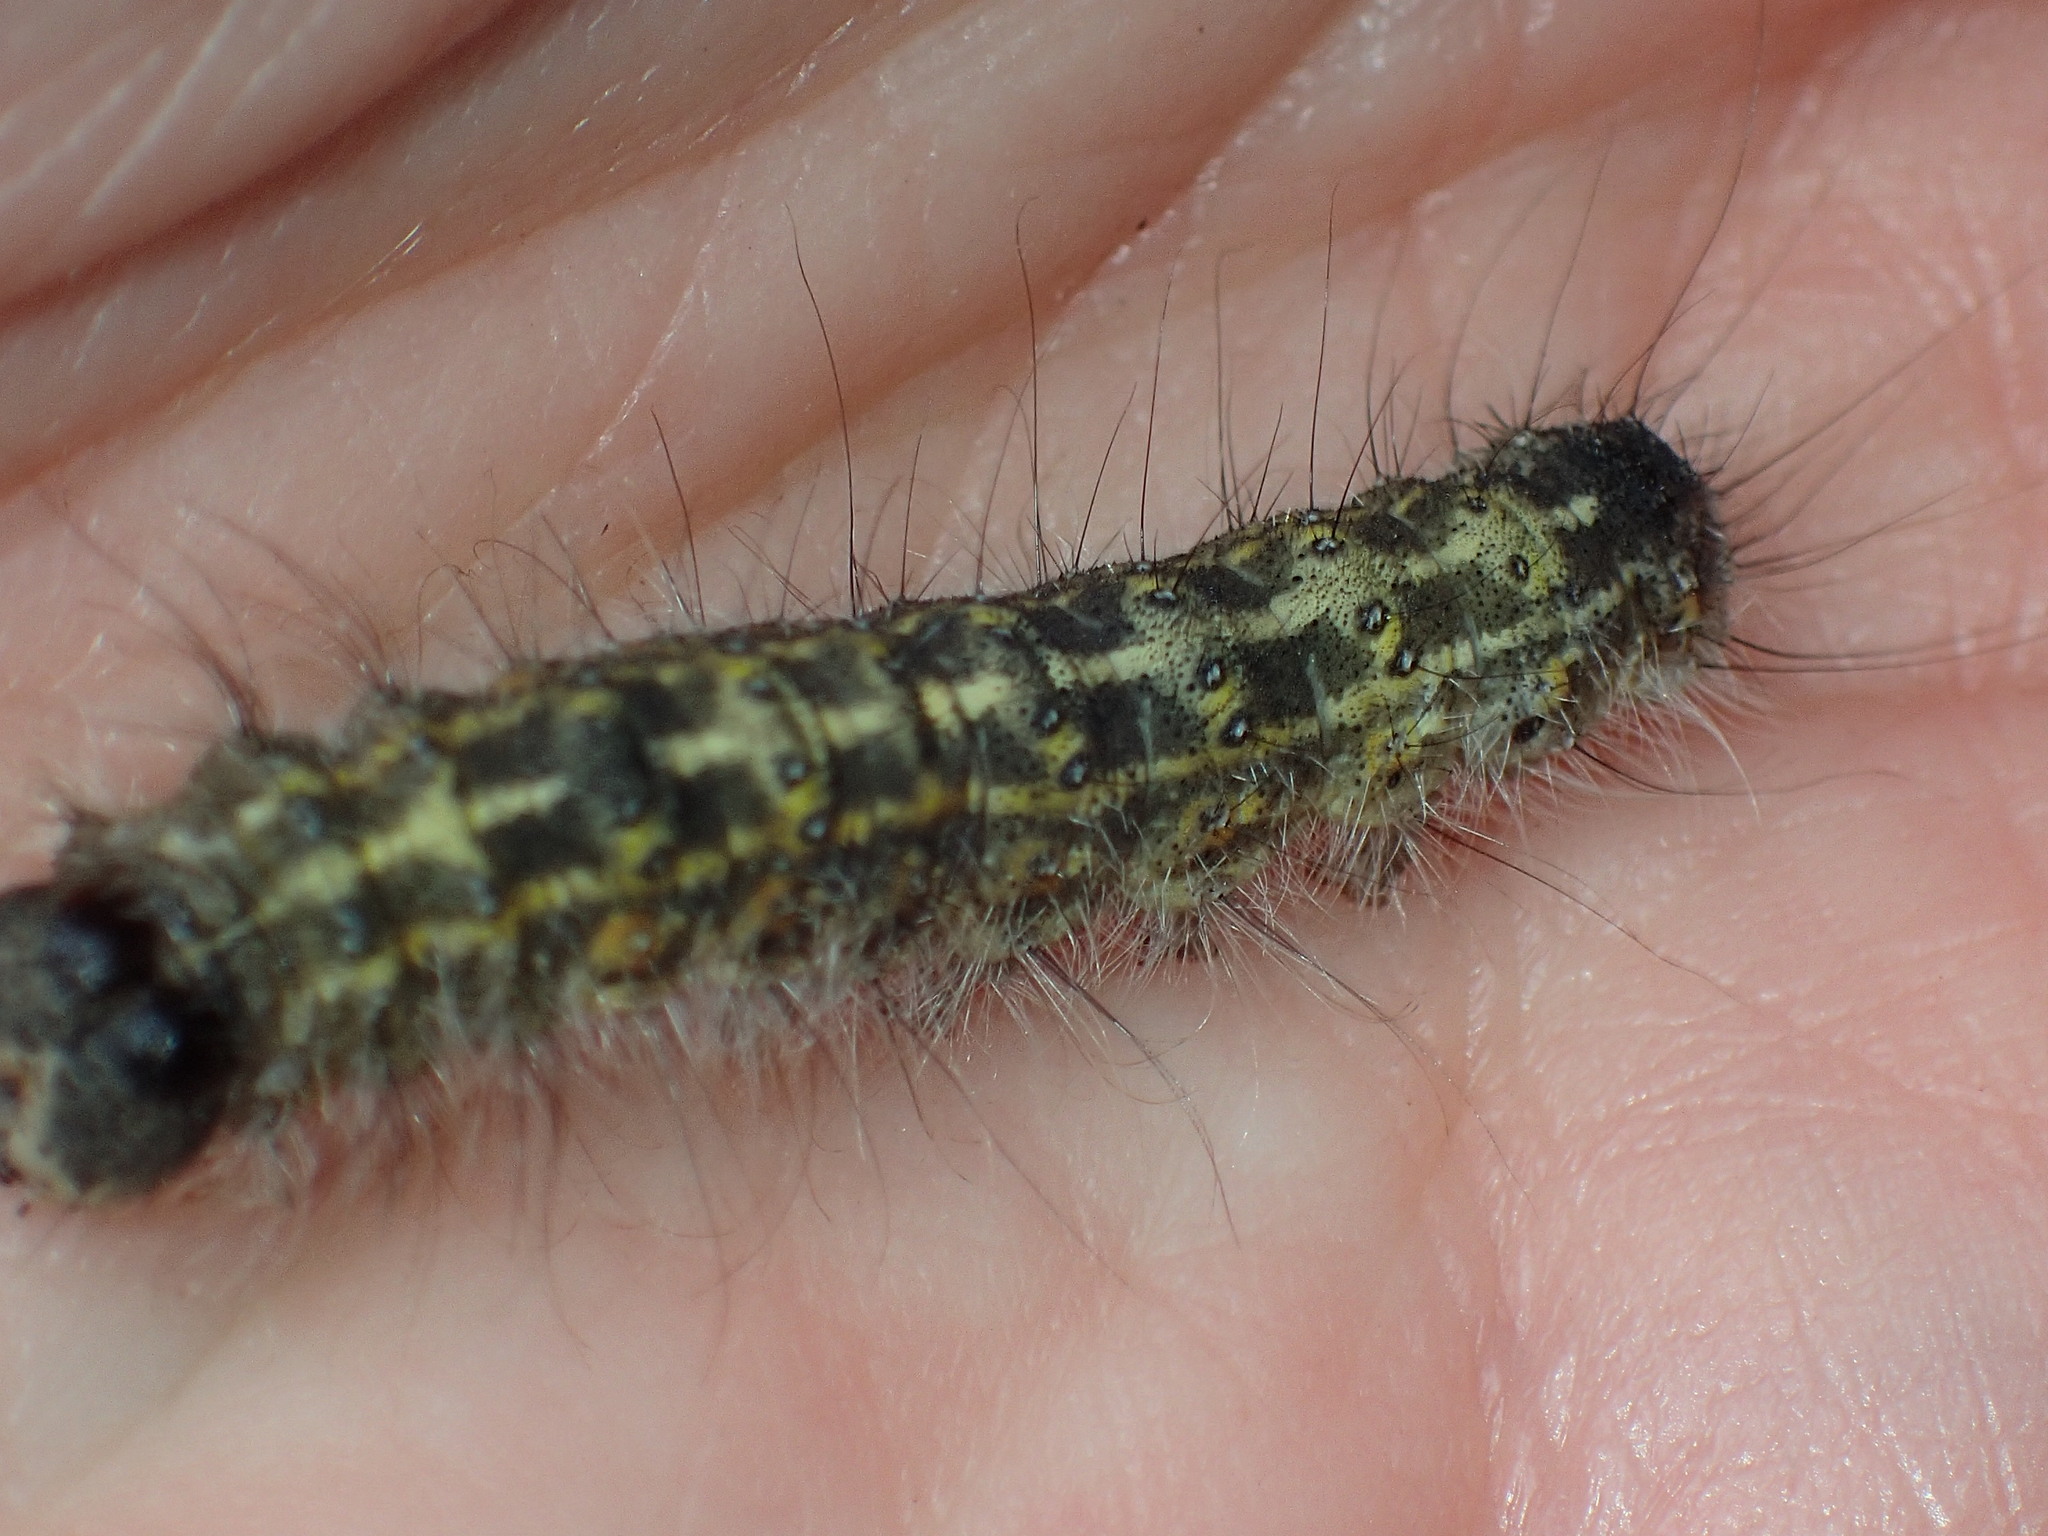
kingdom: Animalia
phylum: Arthropoda
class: Insecta
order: Lepidoptera
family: Noctuidae
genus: Acronicta
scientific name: Acronicta lobeliae
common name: Greater oak dagger
